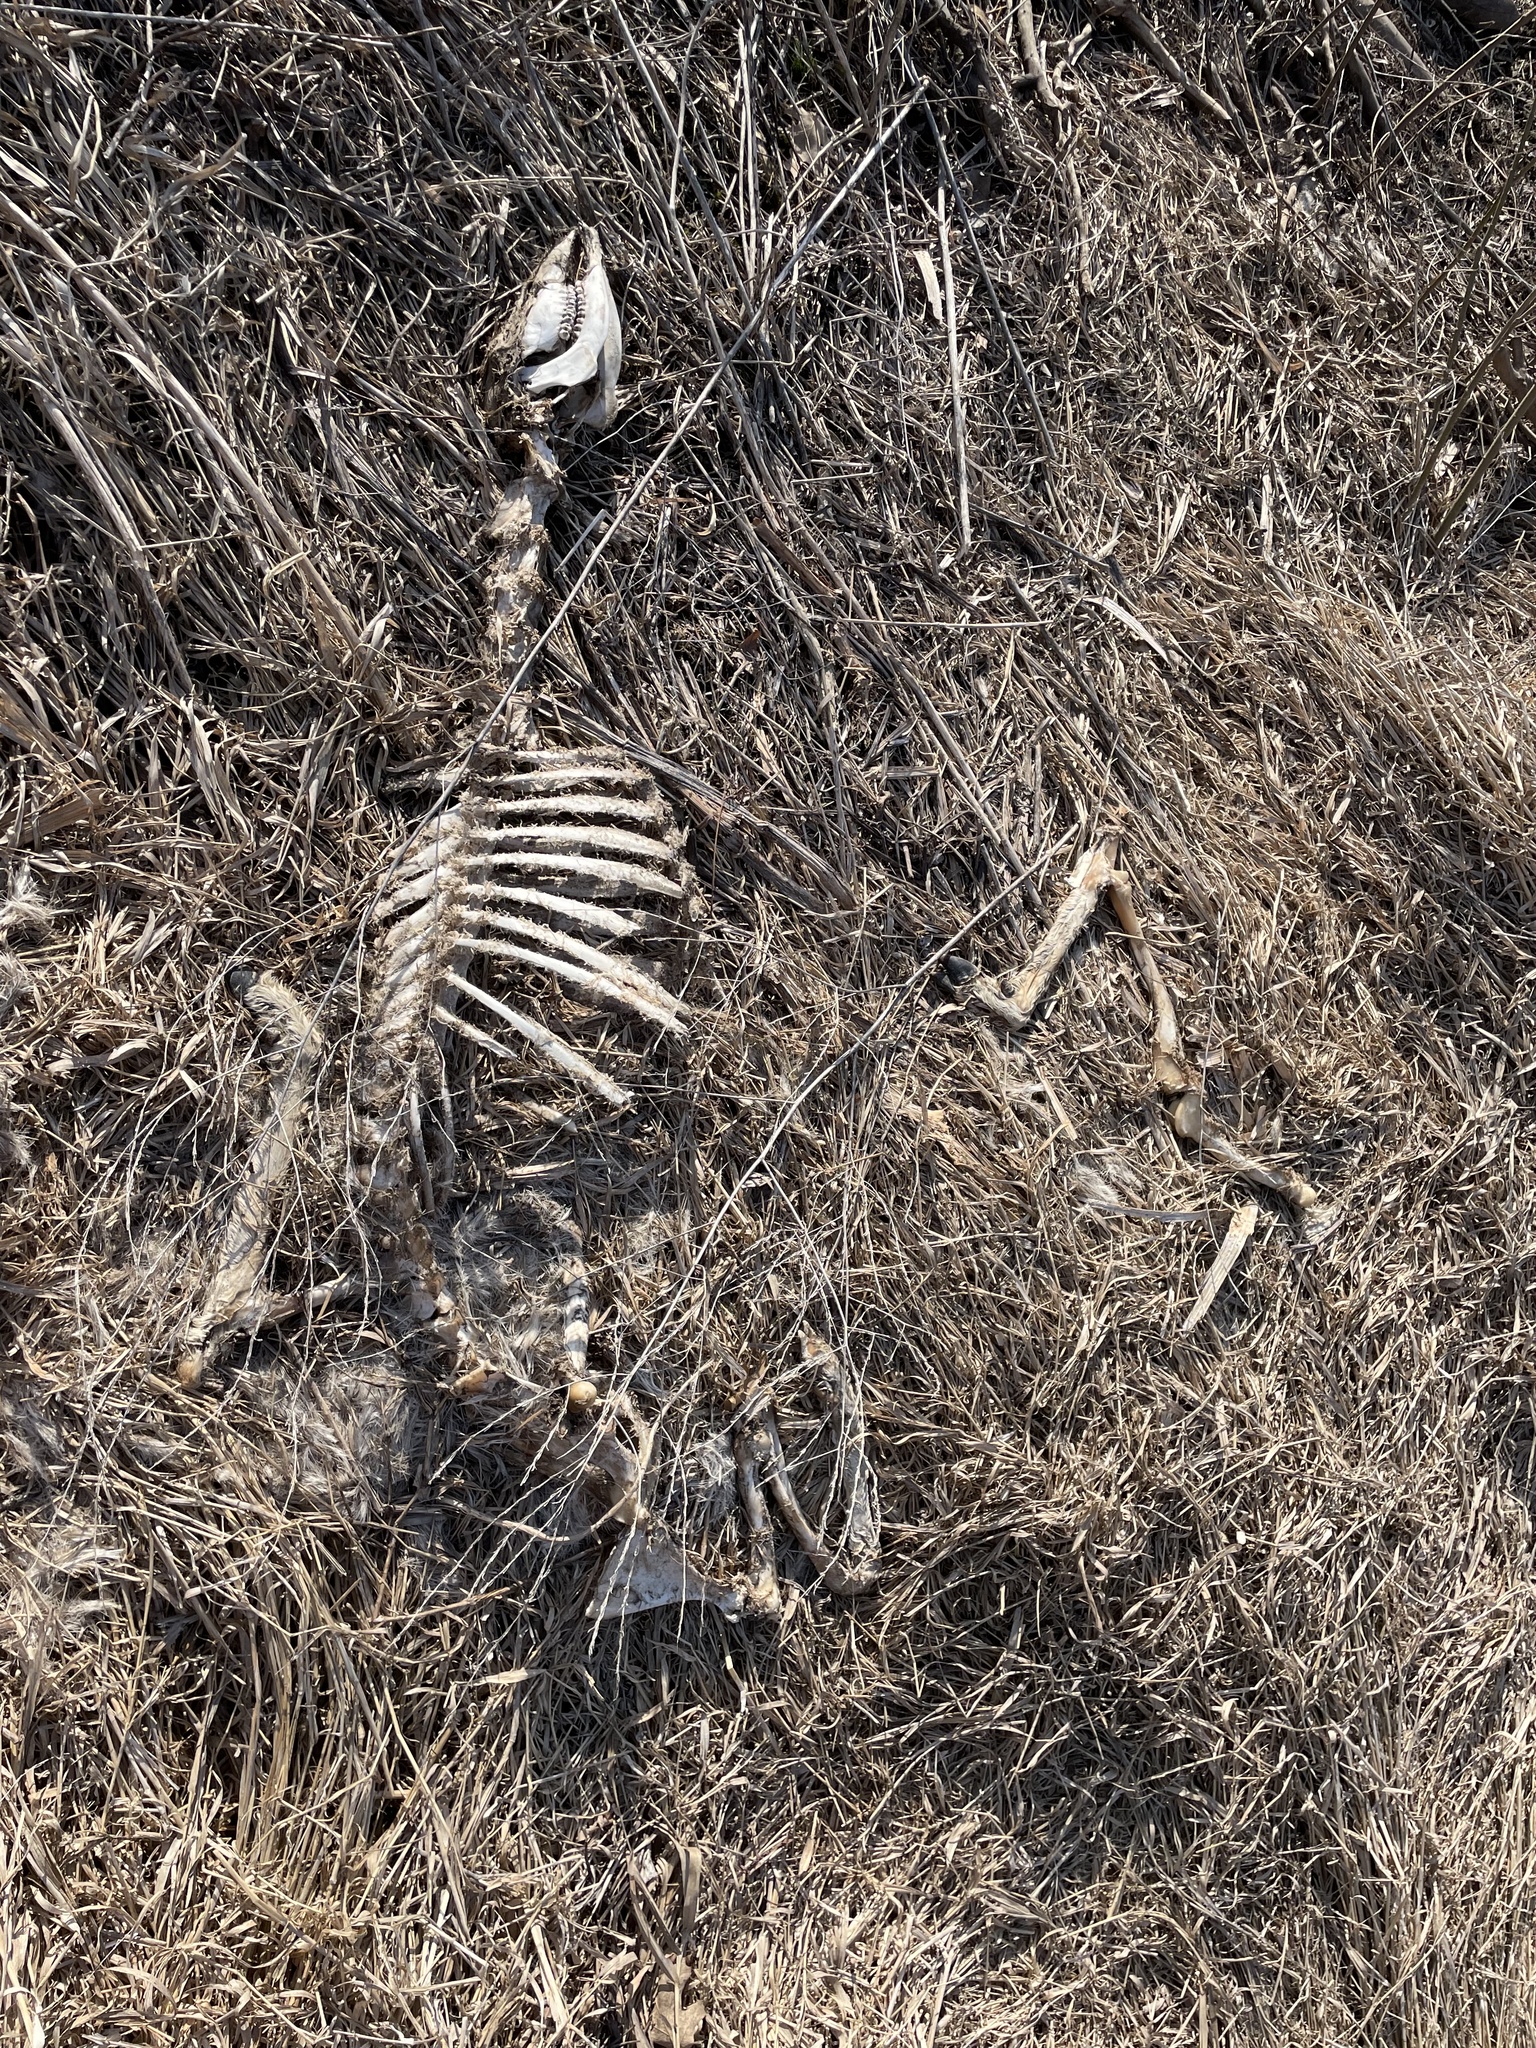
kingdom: Animalia
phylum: Chordata
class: Mammalia
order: Artiodactyla
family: Cervidae
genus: Odocoileus
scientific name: Odocoileus virginianus
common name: White-tailed deer
